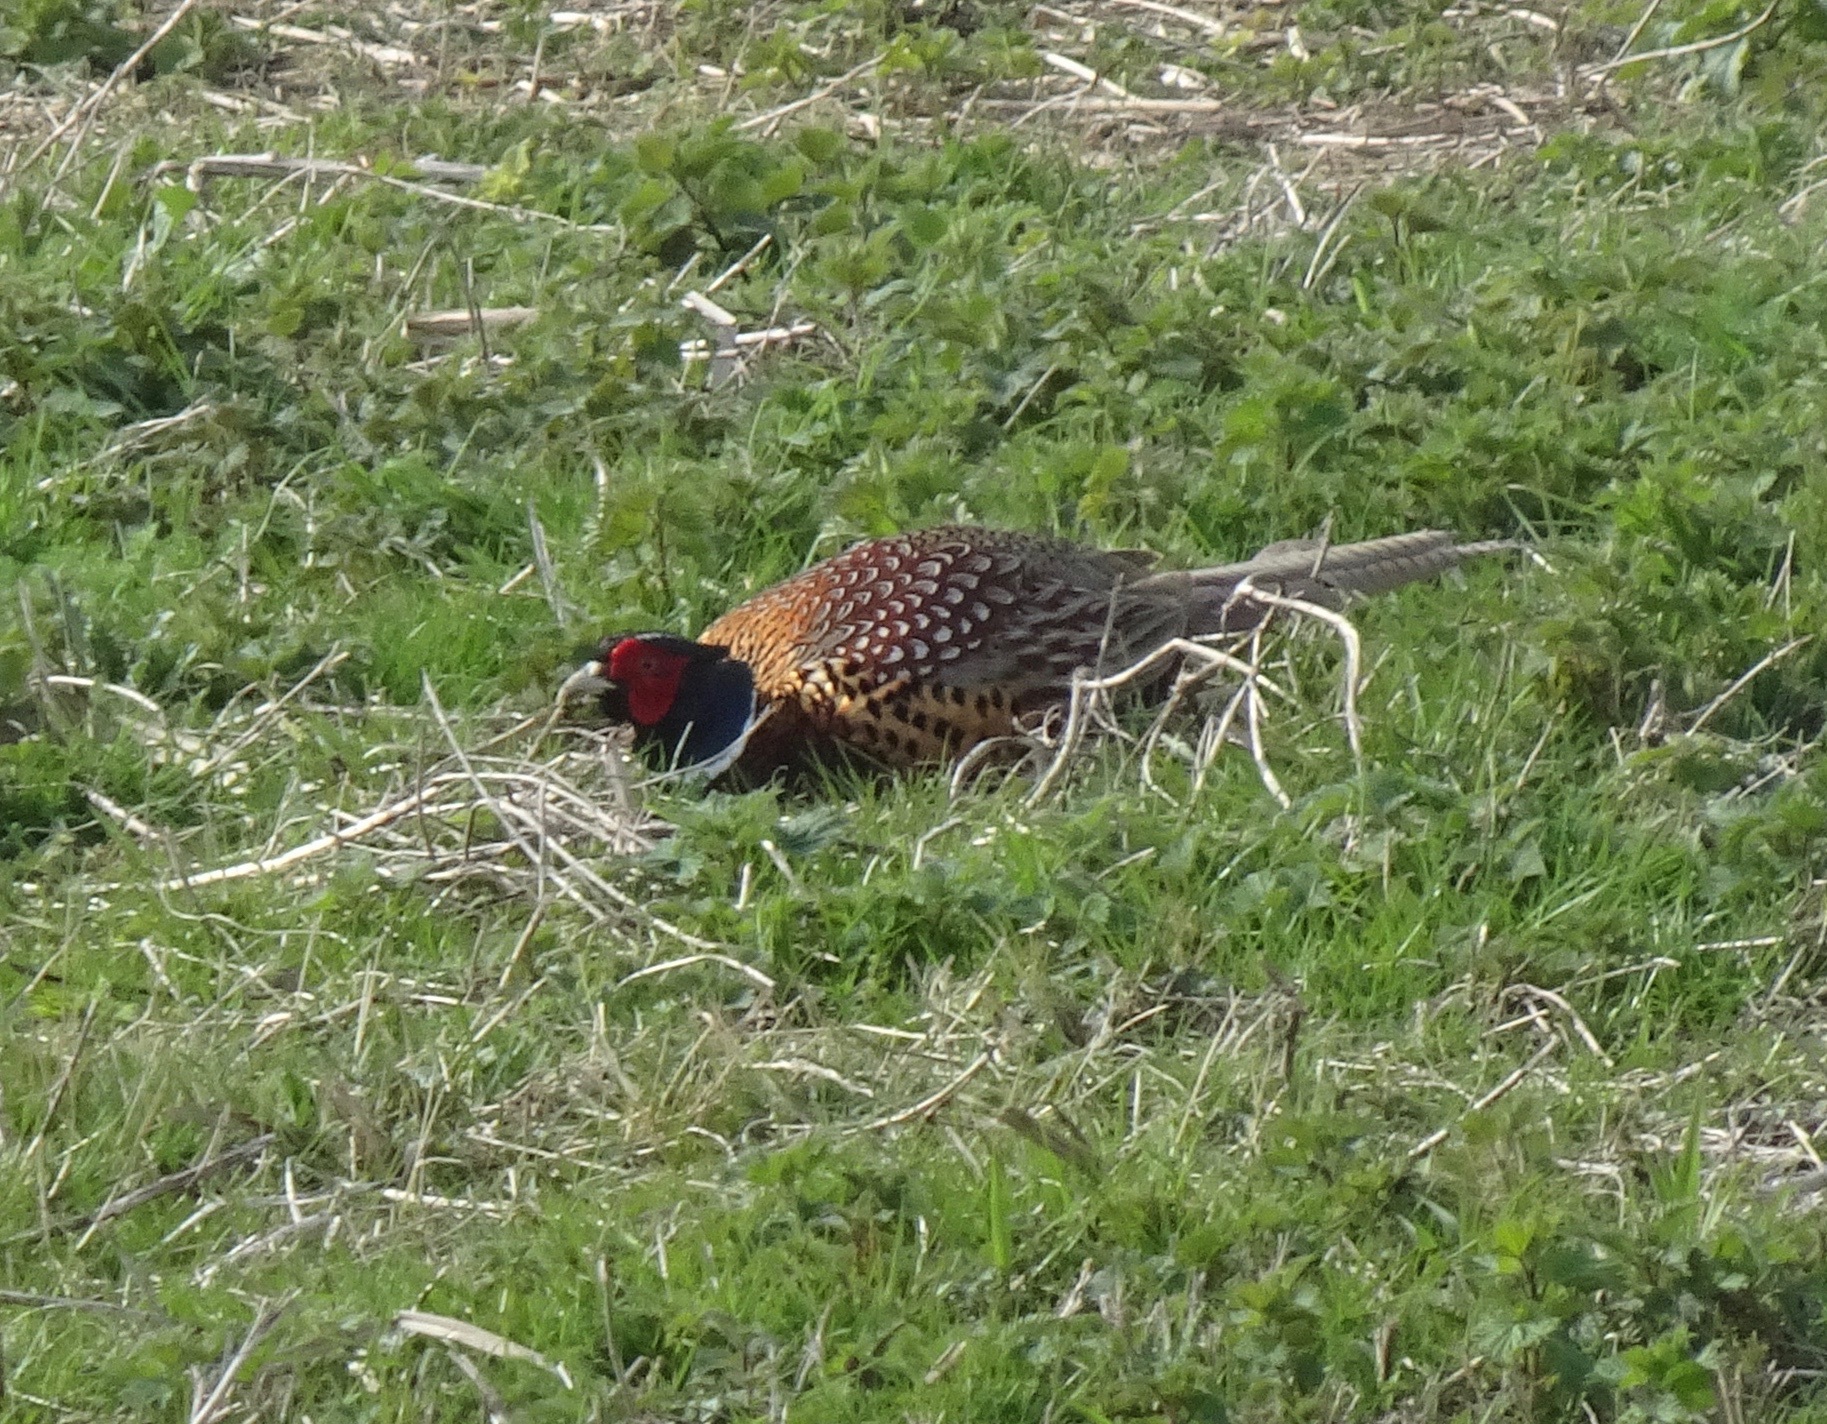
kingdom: Animalia
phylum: Chordata
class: Aves
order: Galliformes
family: Phasianidae
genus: Phasianus
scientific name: Phasianus colchicus
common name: Common pheasant
